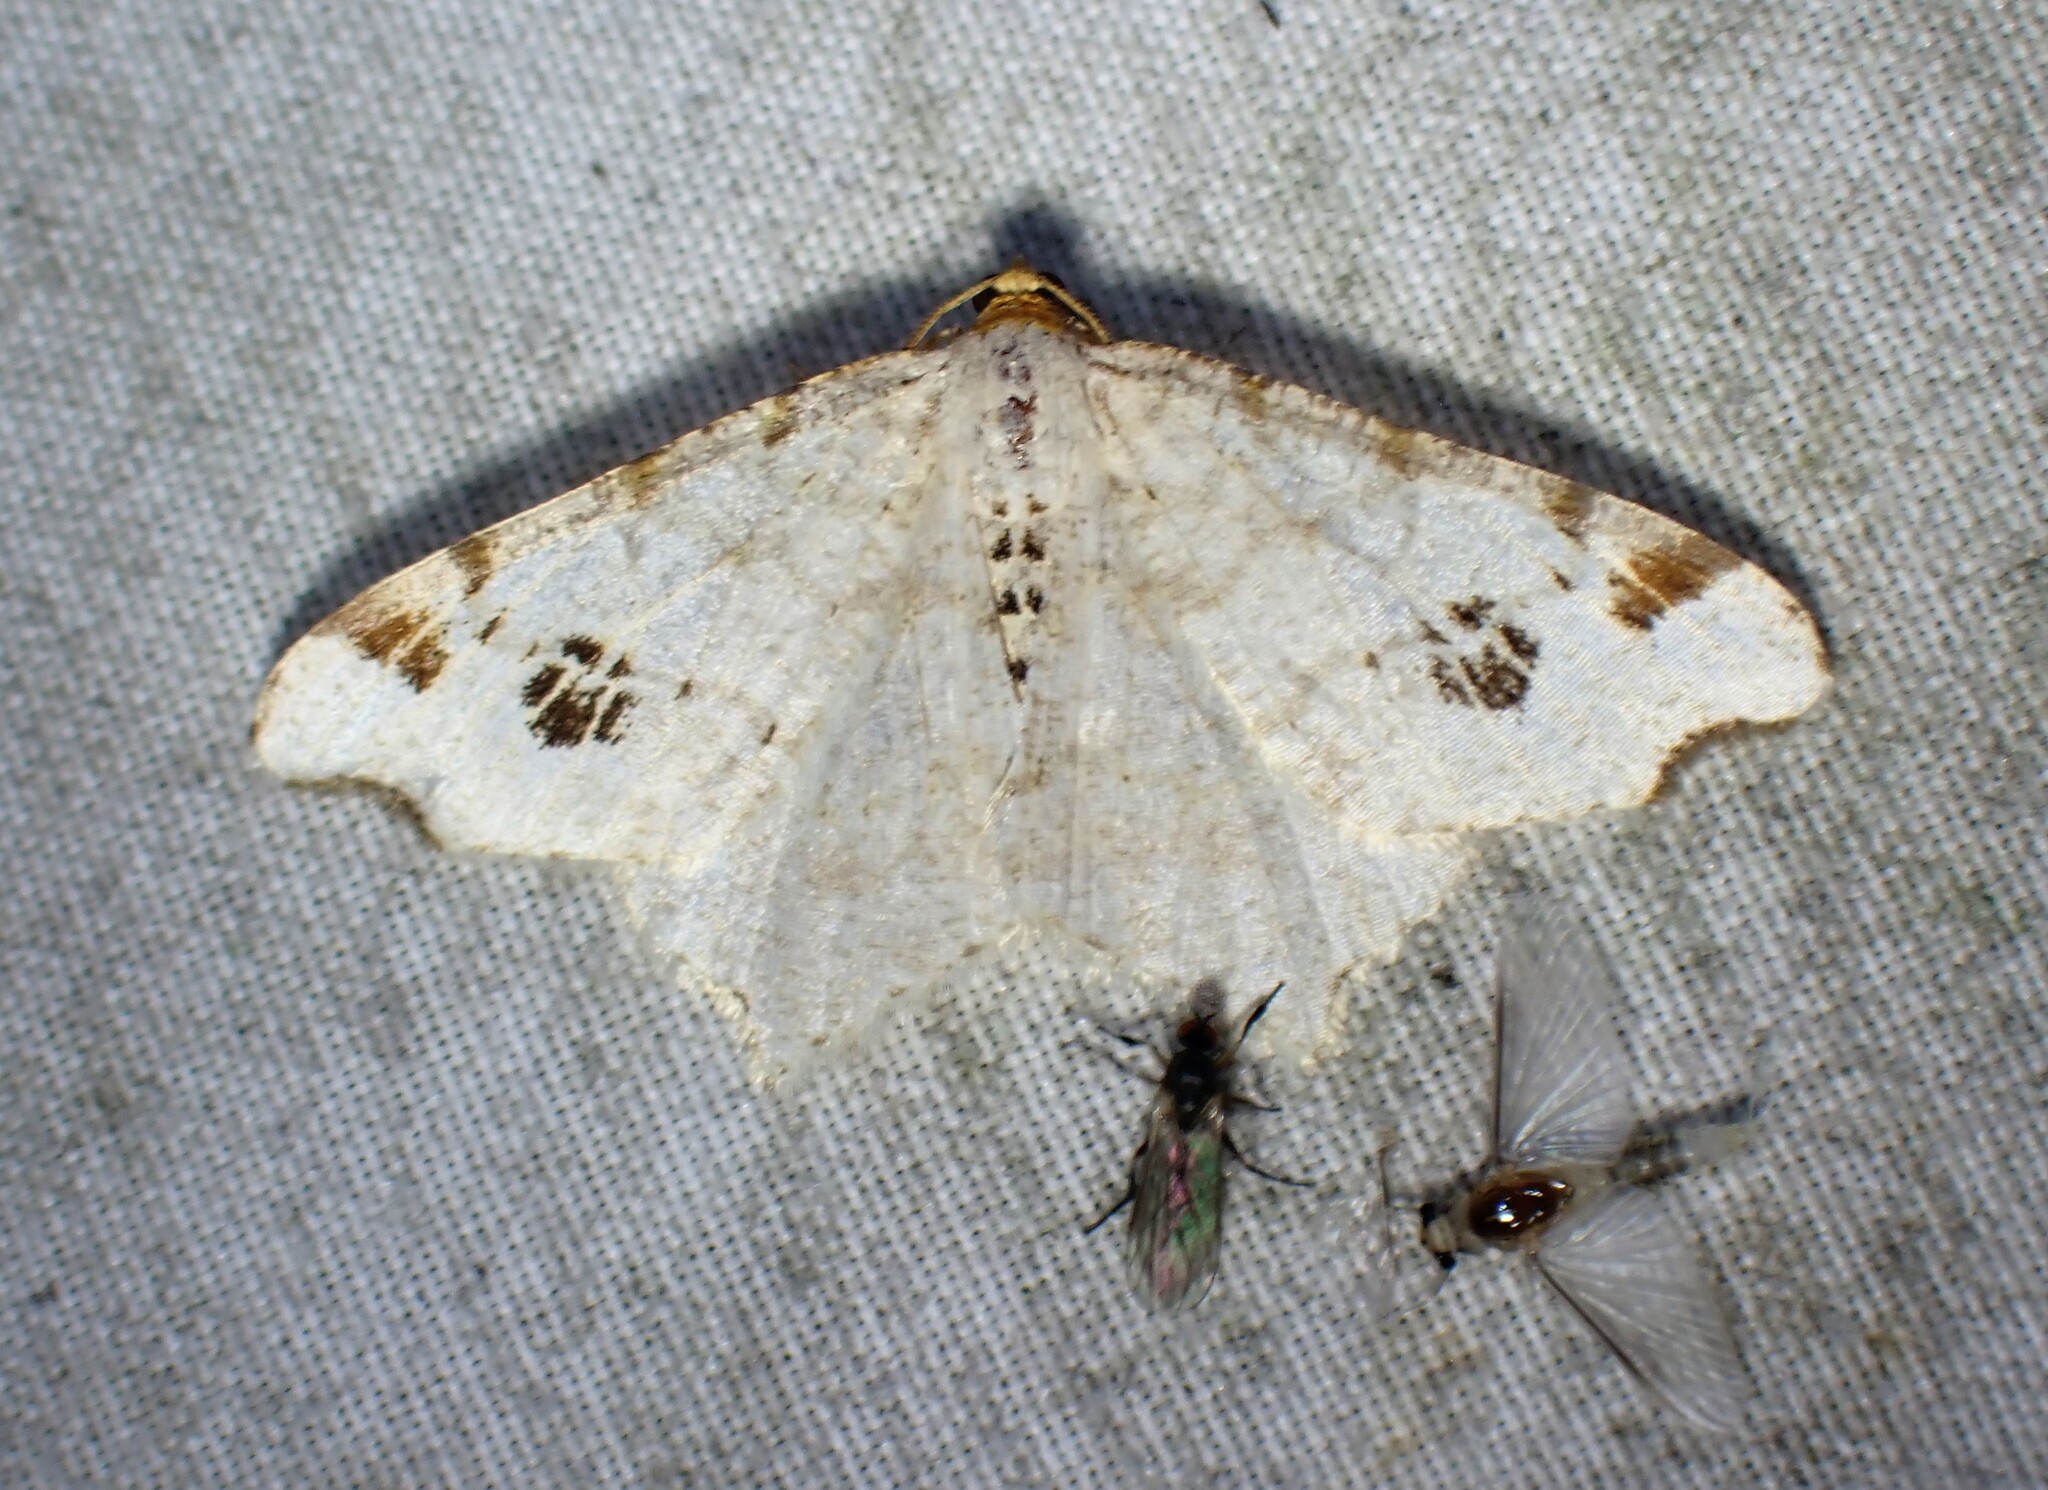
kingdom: Animalia
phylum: Arthropoda
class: Insecta
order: Lepidoptera
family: Geometridae
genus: Macaria
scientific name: Macaria ulsterata
